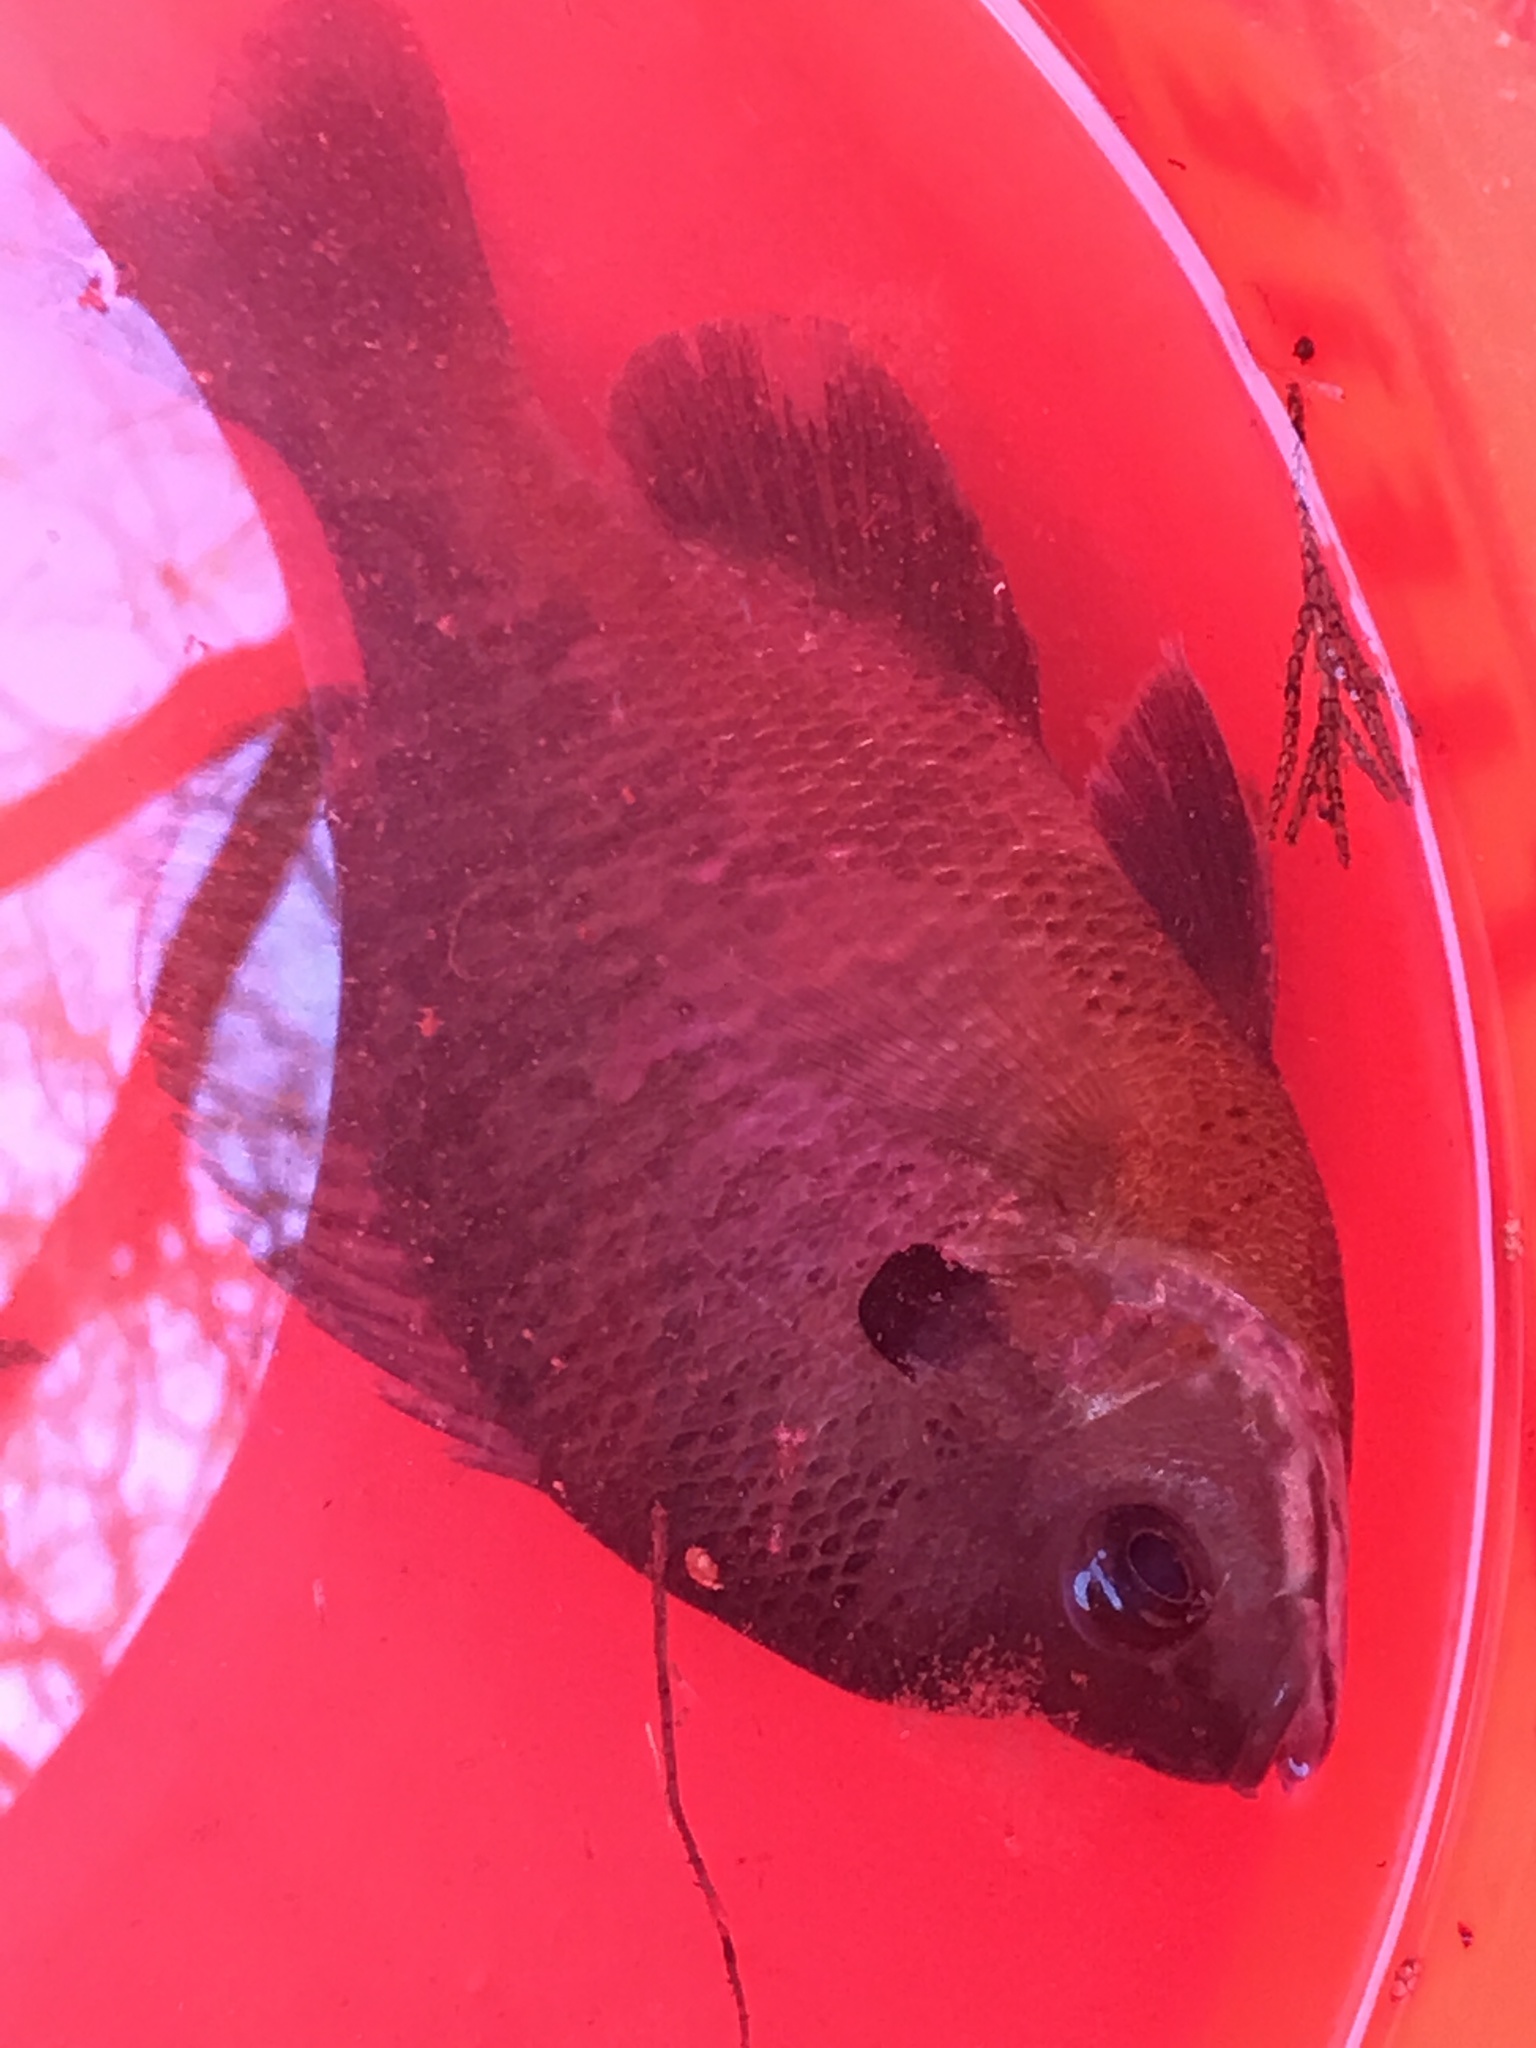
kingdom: Animalia
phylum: Chordata
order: Perciformes
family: Centrarchidae
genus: Lepomis
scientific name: Lepomis macrochirus
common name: Bluegill
